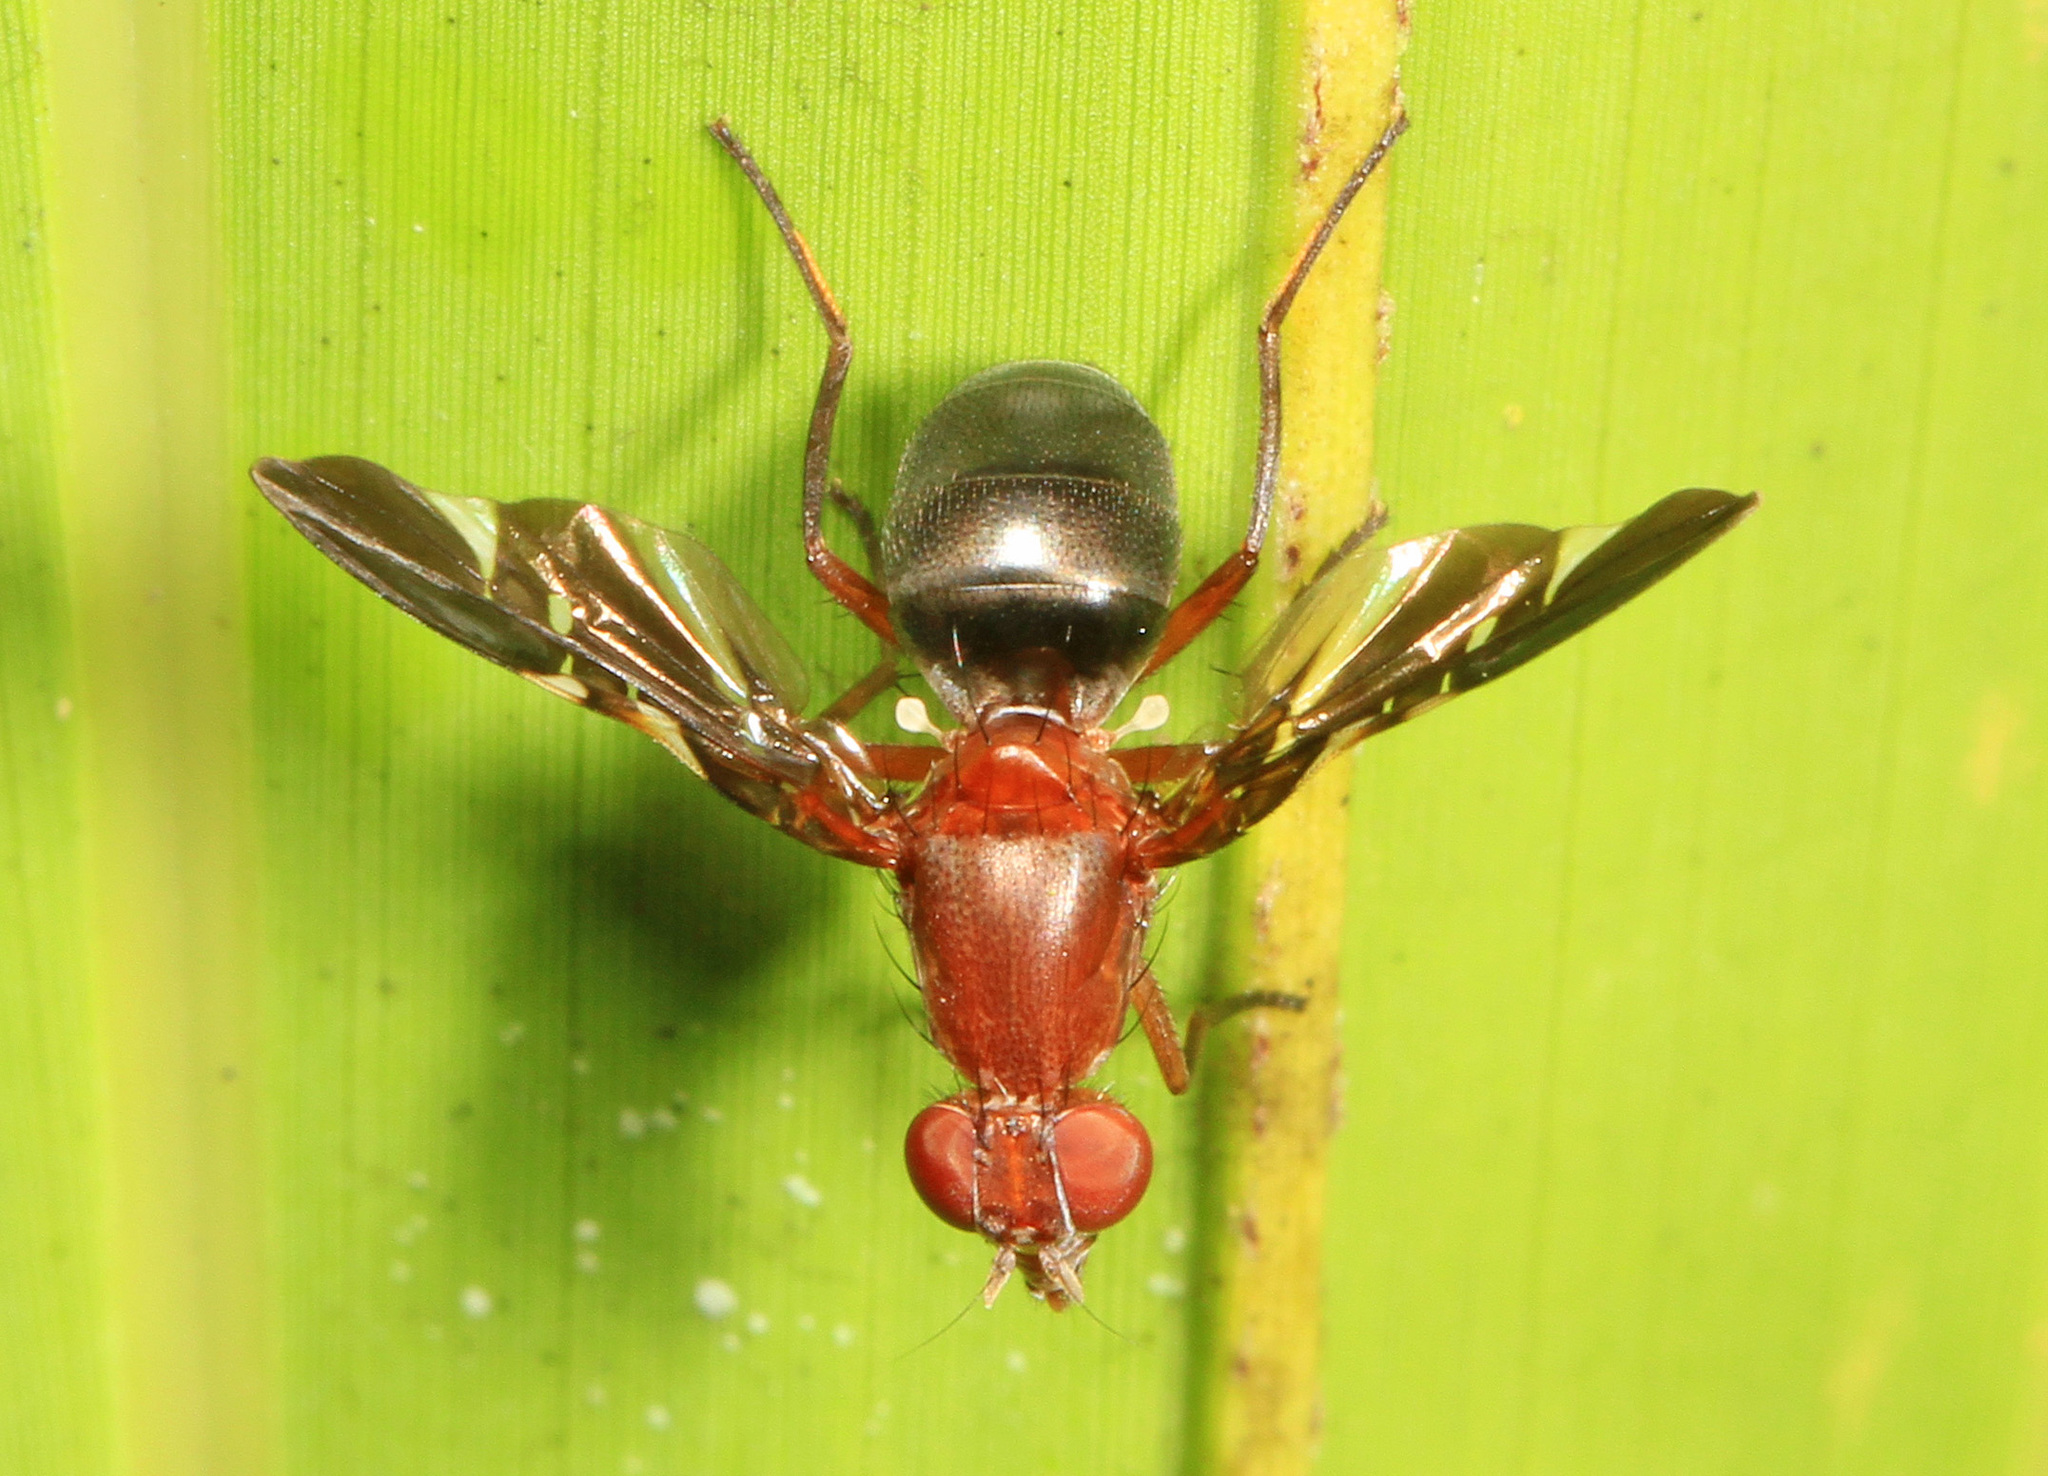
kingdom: Animalia
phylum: Arthropoda
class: Insecta
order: Diptera
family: Ulidiidae
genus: Delphinia
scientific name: Delphinia picta
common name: Common picture-winged fly
